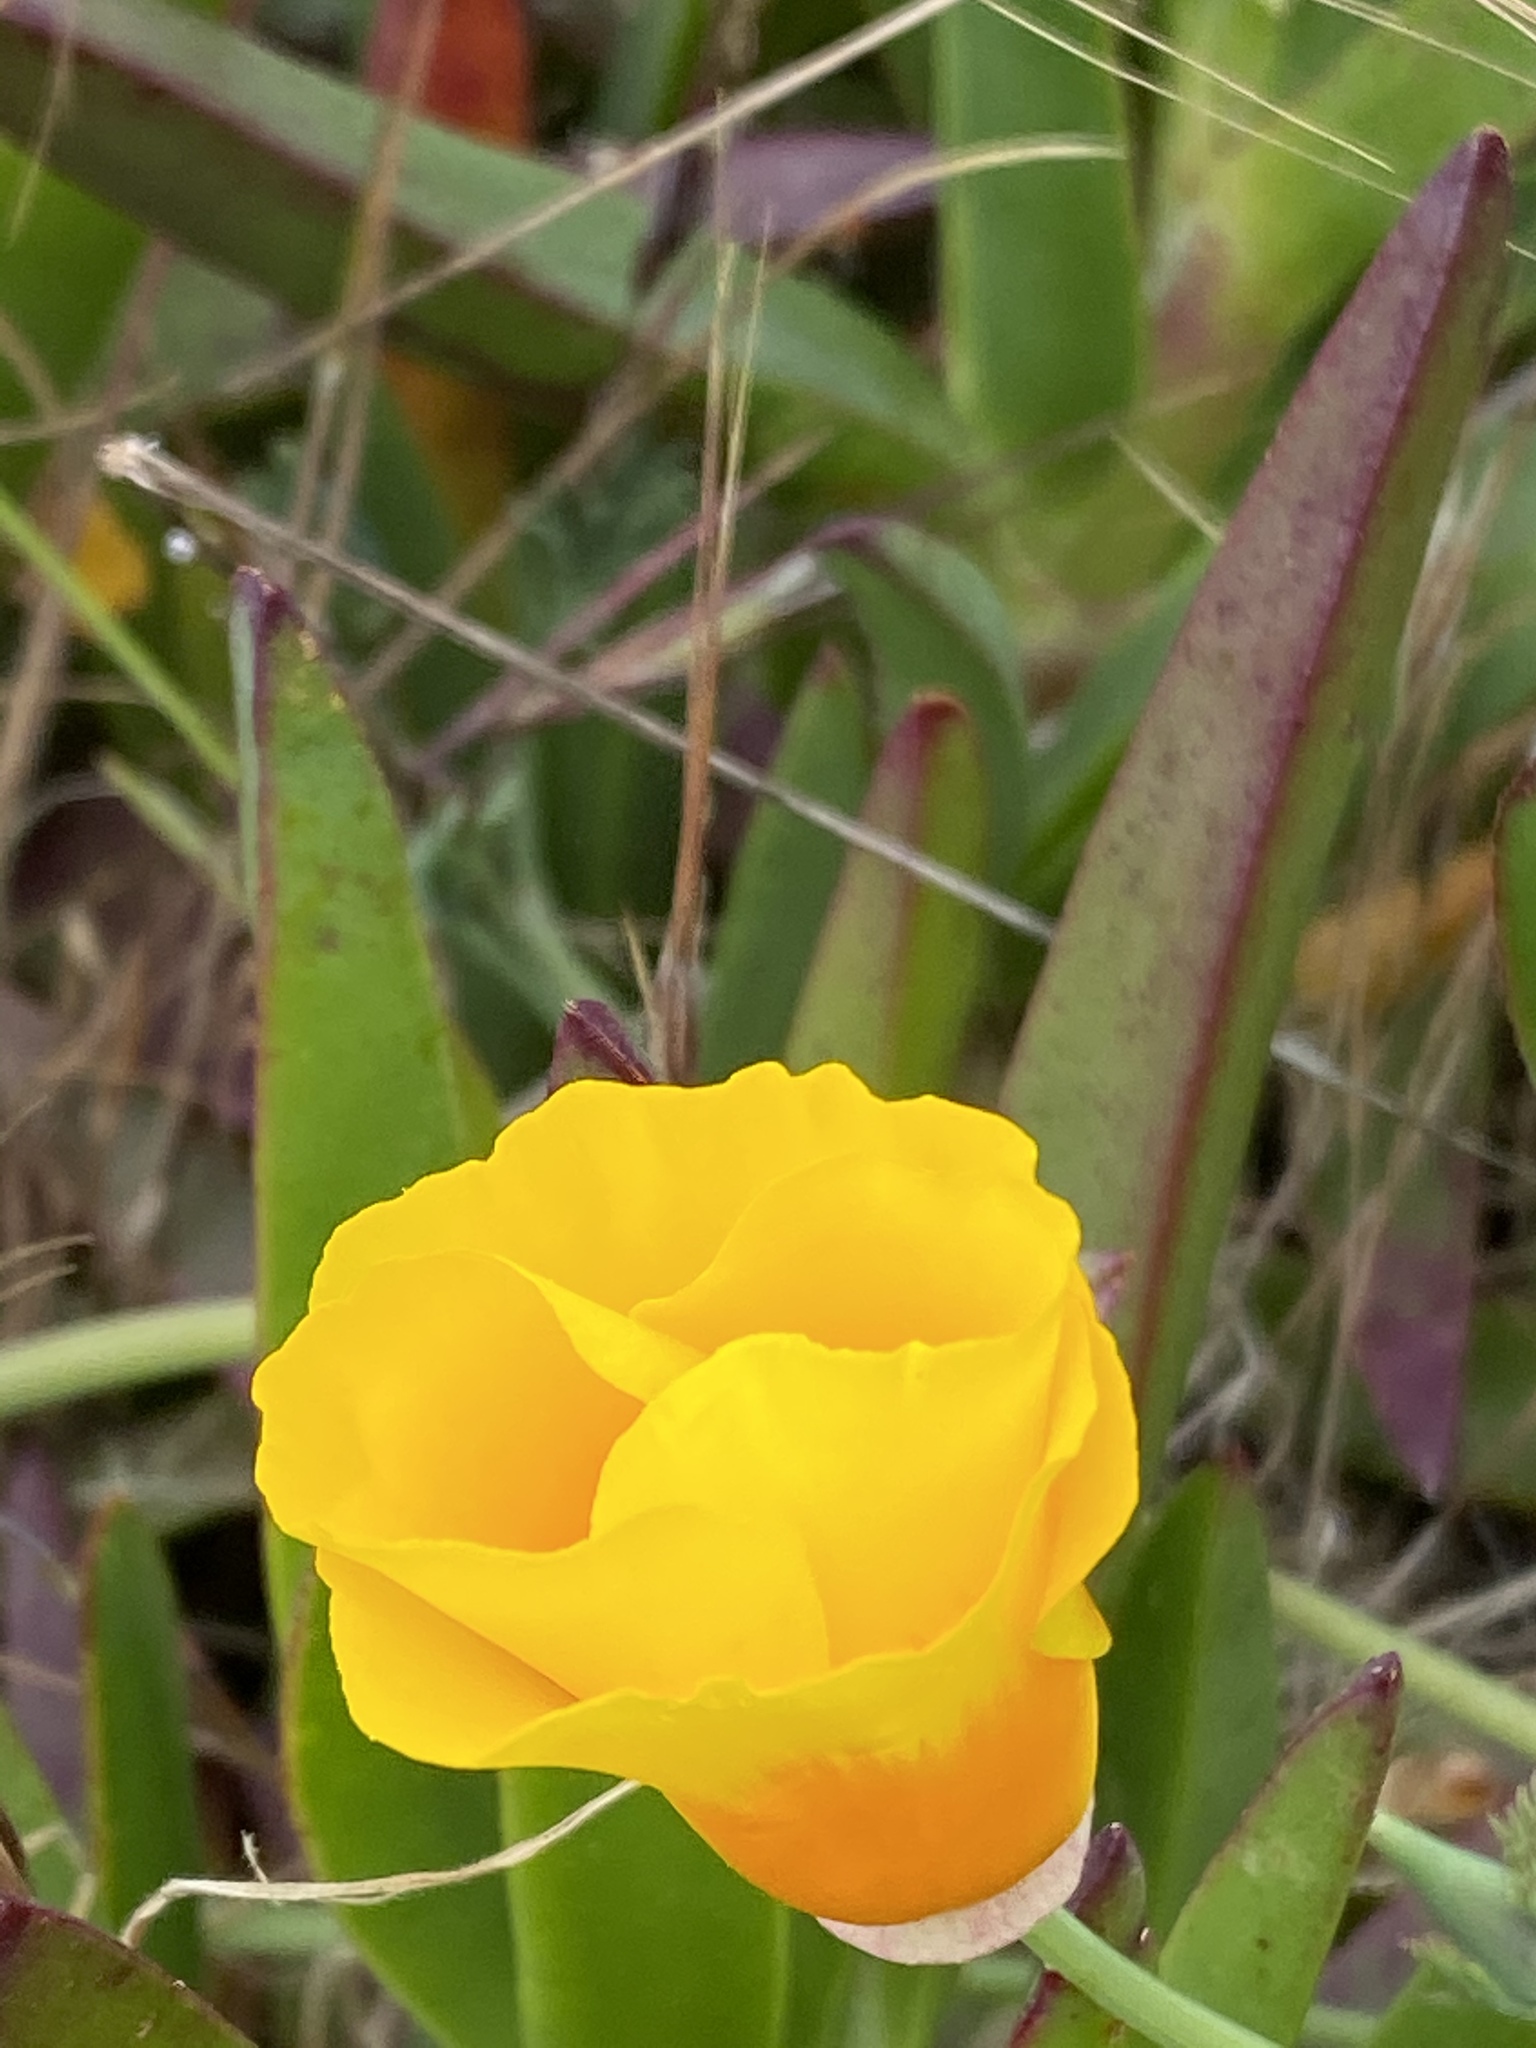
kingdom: Plantae
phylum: Tracheophyta
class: Magnoliopsida
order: Ranunculales
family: Papaveraceae
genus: Eschscholzia
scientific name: Eschscholzia californica
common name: California poppy
